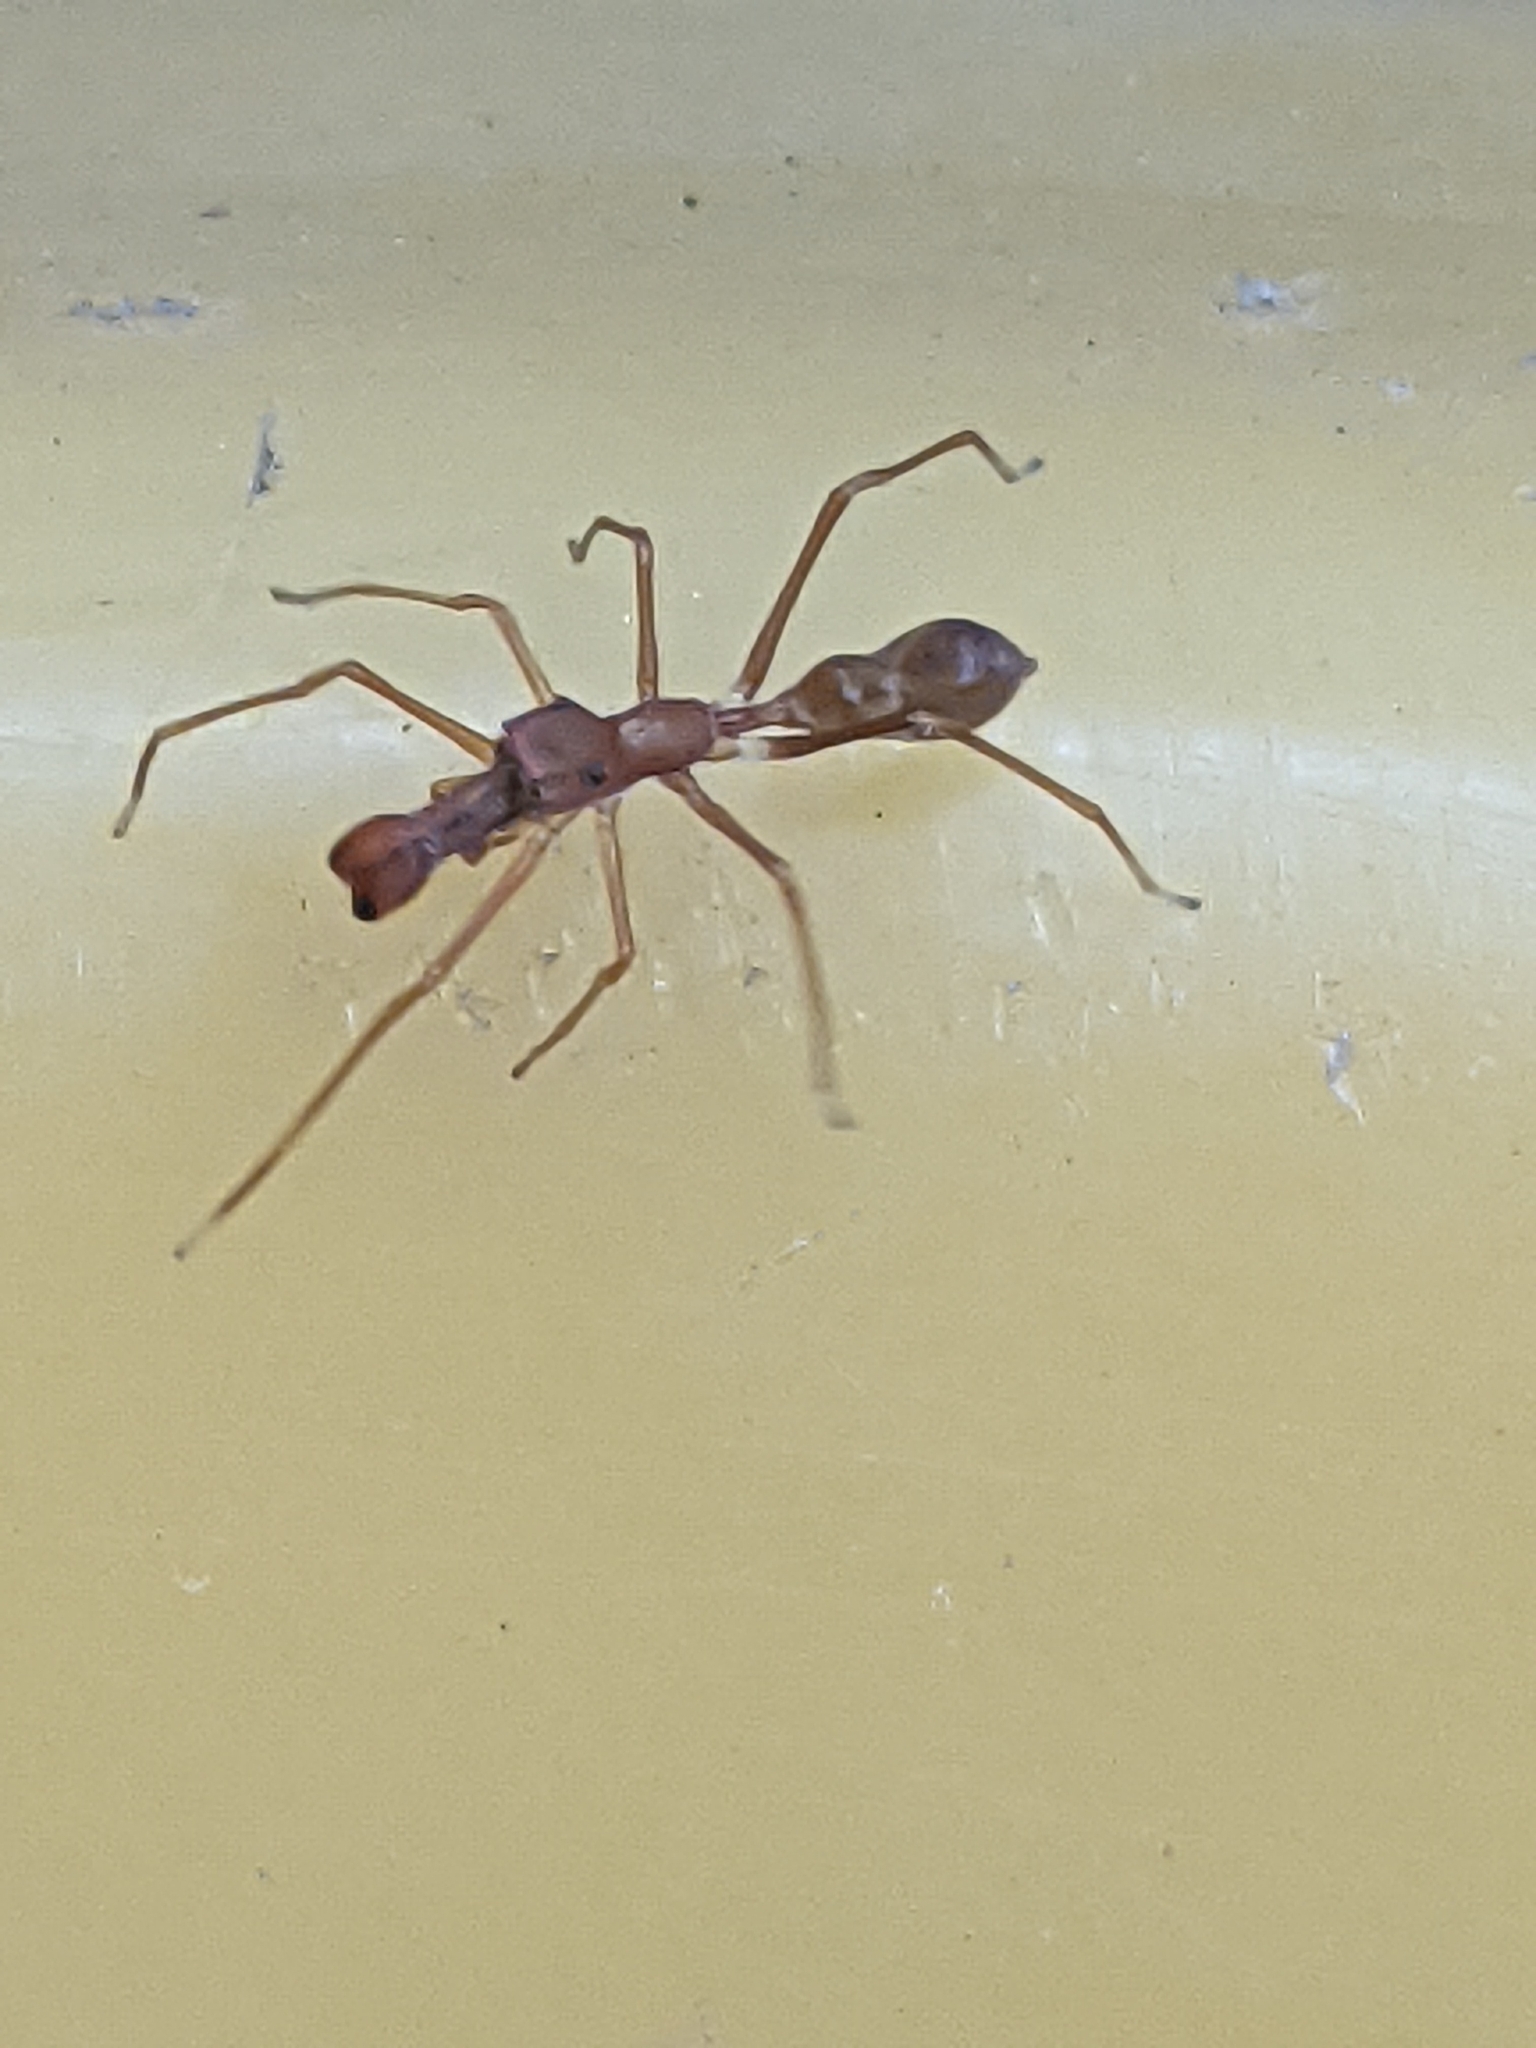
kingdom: Animalia
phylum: Arthropoda
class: Arachnida
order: Araneae
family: Salticidae
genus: Myrmaplata
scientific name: Myrmaplata plataleoides
